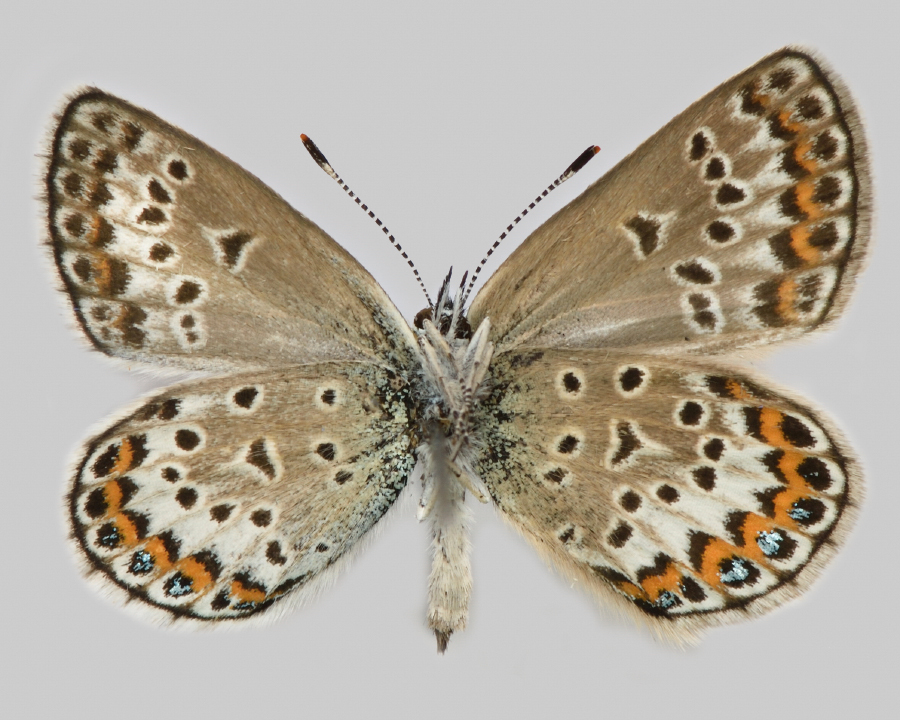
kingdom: Animalia
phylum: Arthropoda
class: Insecta
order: Lepidoptera
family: Lycaenidae
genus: Plebejus
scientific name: Plebejus argus
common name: Silver-studded blue
